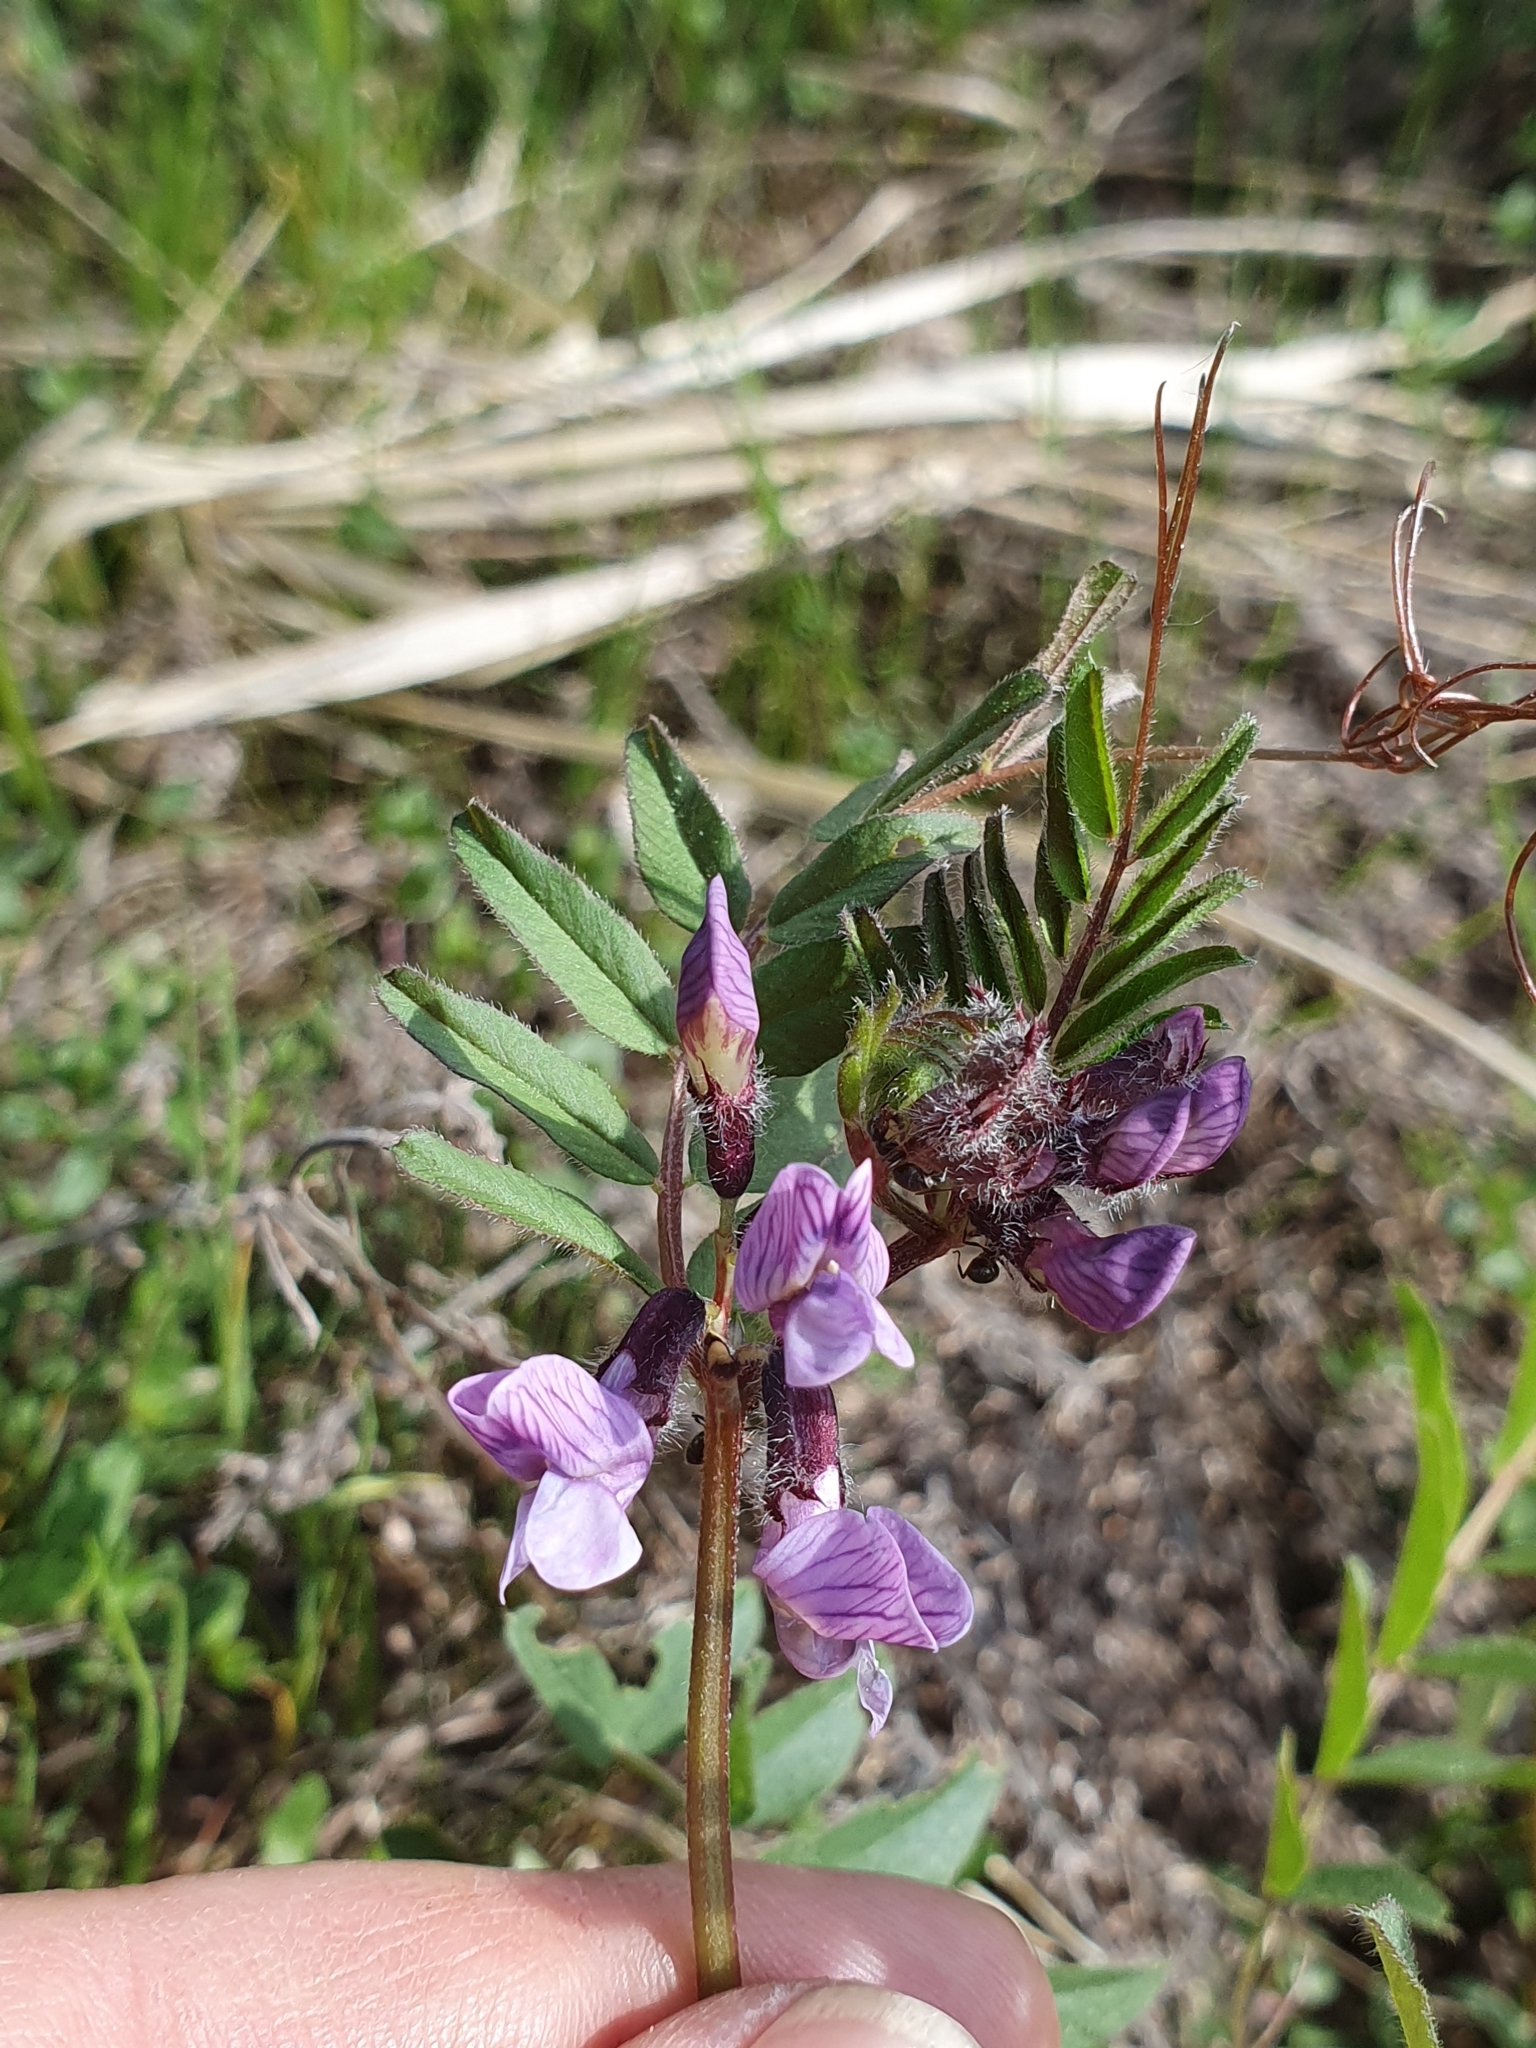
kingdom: Plantae
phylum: Tracheophyta
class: Magnoliopsida
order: Fabales
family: Fabaceae
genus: Vicia
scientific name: Vicia sepium
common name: Bush vetch
